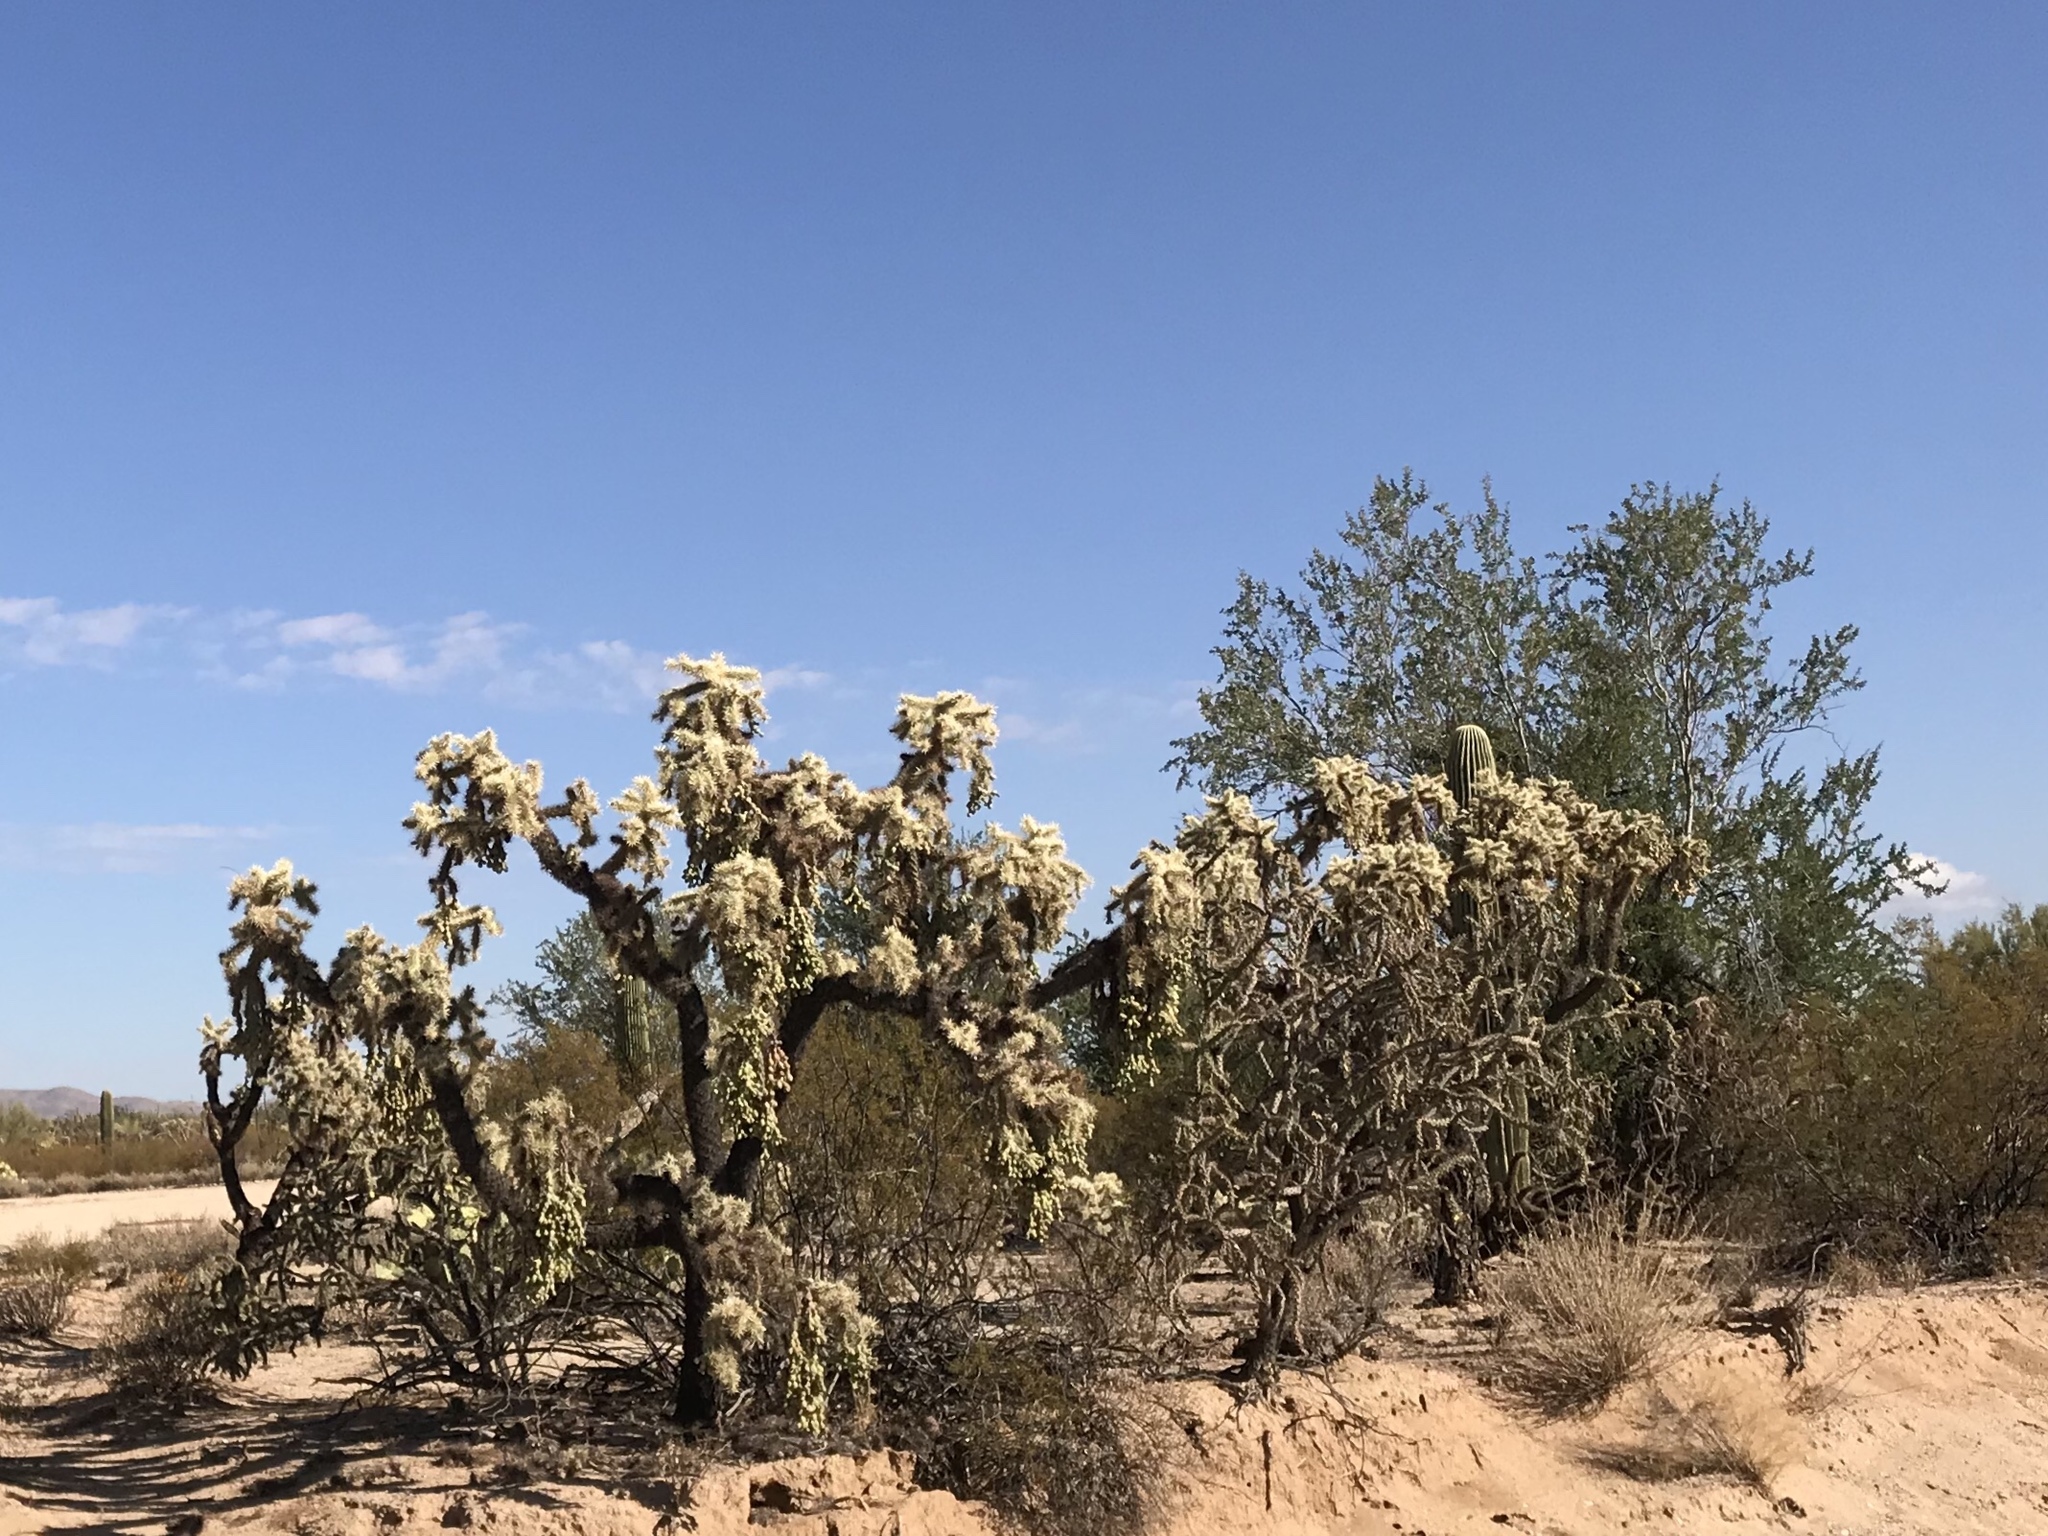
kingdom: Plantae
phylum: Tracheophyta
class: Magnoliopsida
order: Caryophyllales
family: Cactaceae
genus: Cylindropuntia
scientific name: Cylindropuntia fulgida
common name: Jumping cholla
